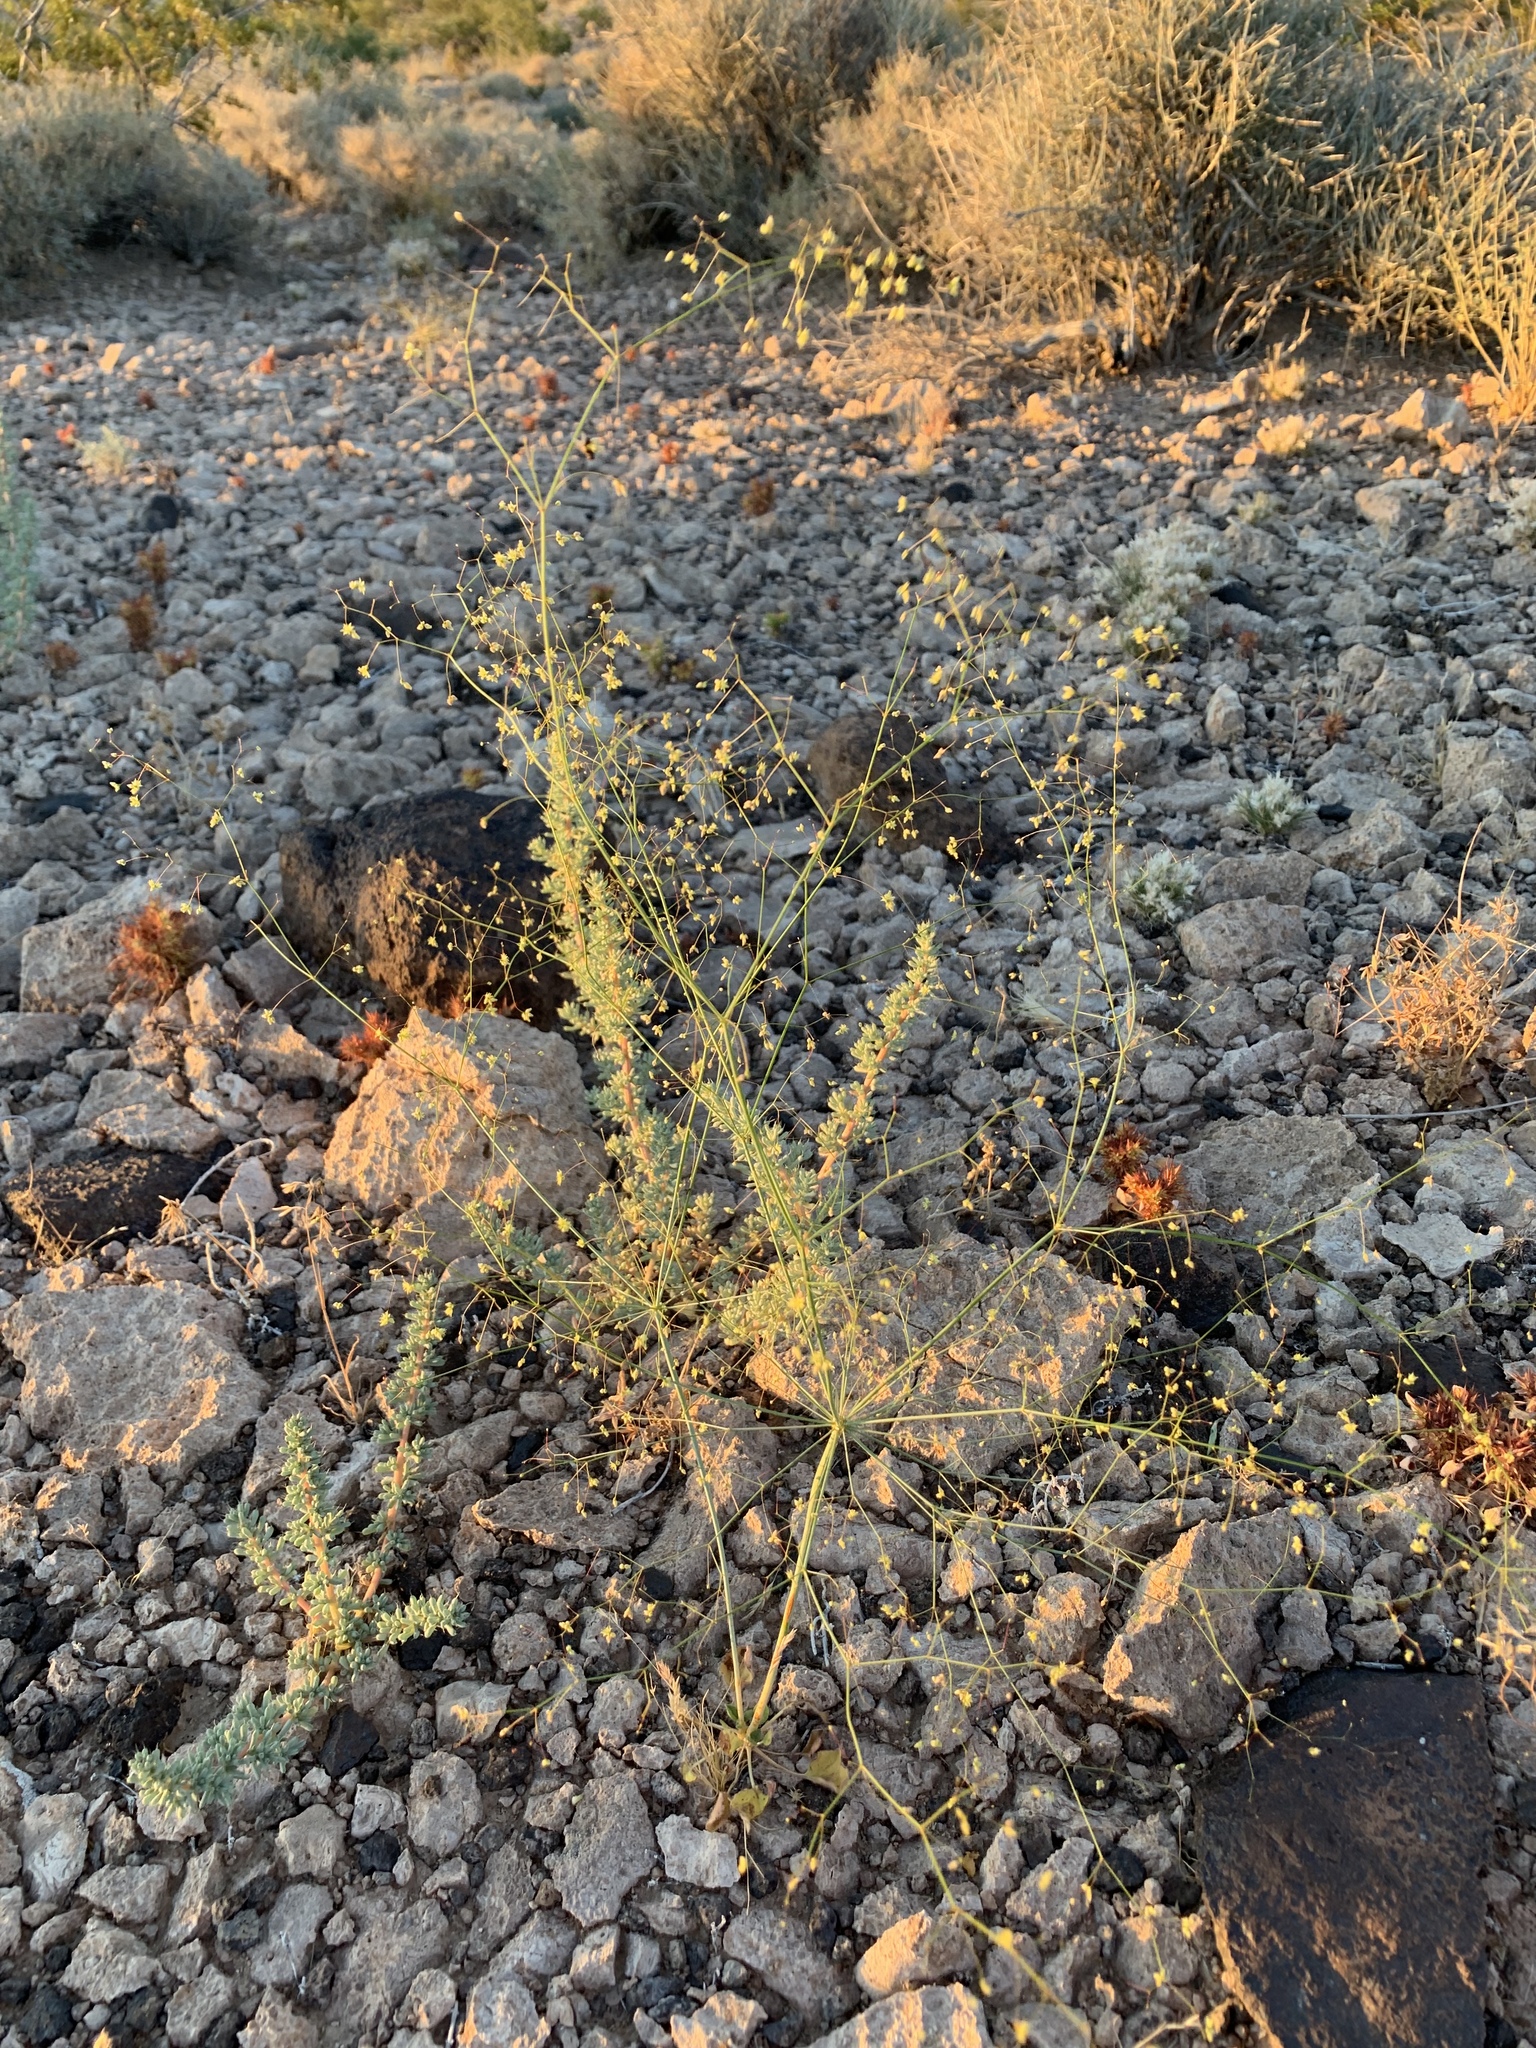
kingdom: Plantae
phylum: Tracheophyta
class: Magnoliopsida
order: Caryophyllales
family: Polygonaceae
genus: Eriogonum
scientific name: Eriogonum inflatum
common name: Desert trumpet
